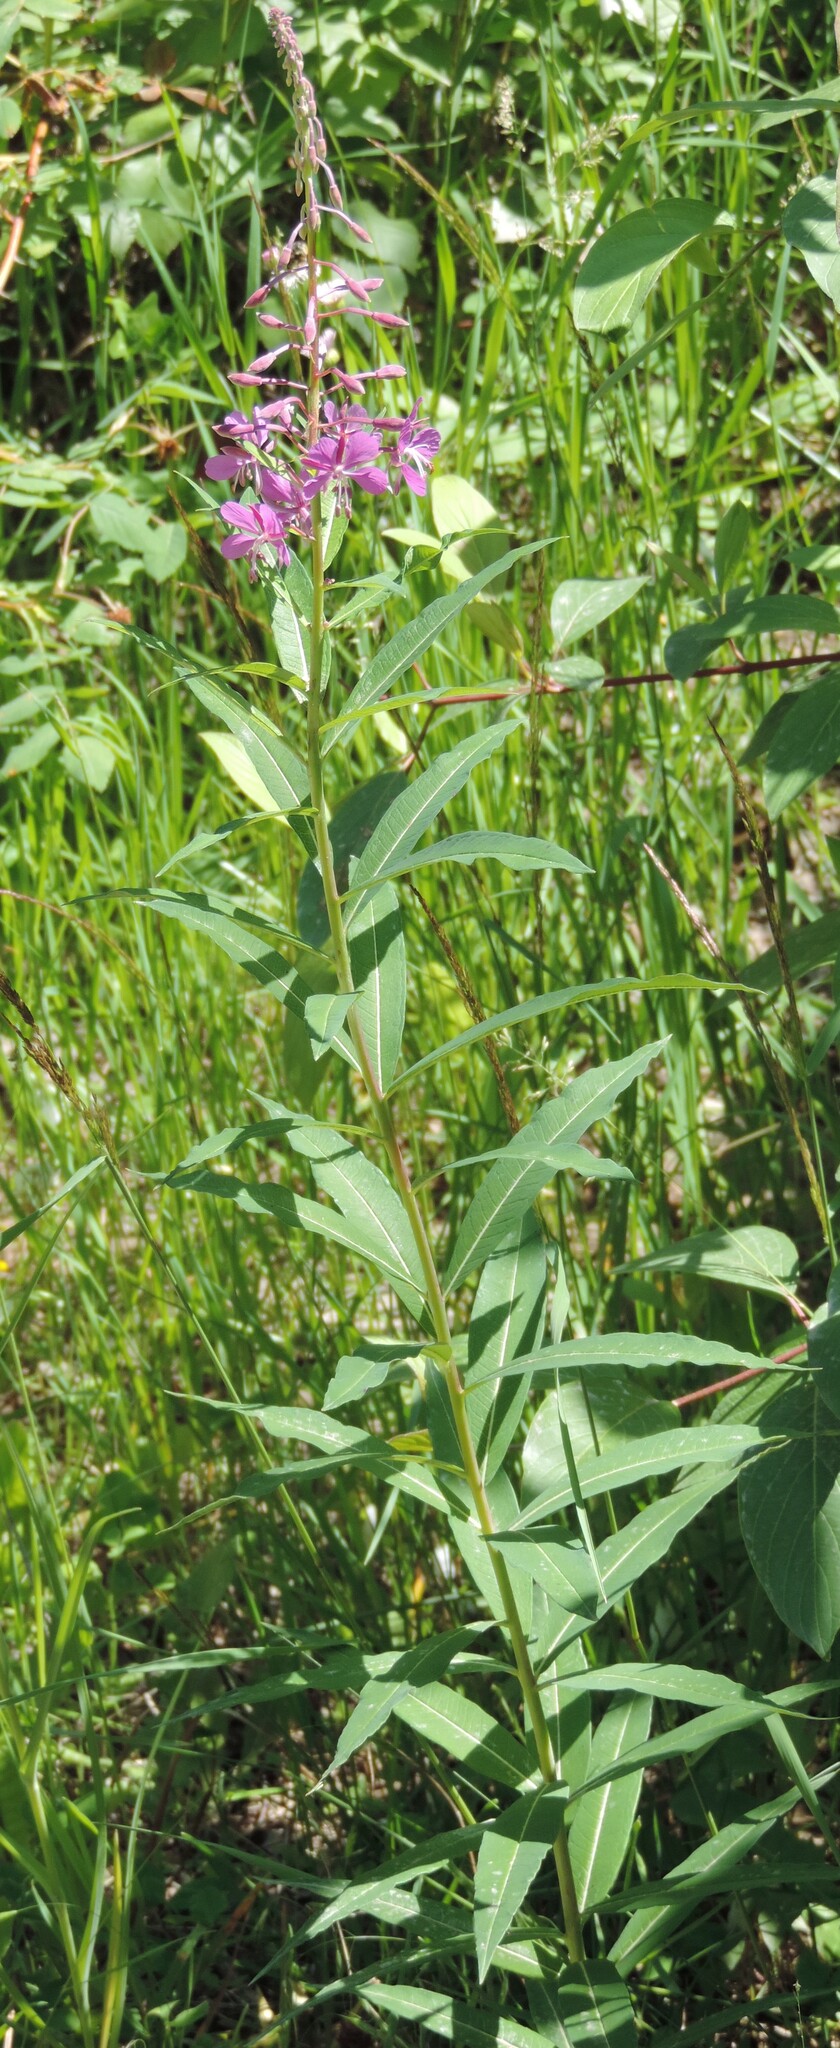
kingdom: Plantae
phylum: Tracheophyta
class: Magnoliopsida
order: Myrtales
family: Onagraceae
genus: Chamaenerion
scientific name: Chamaenerion angustifolium
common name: Fireweed
